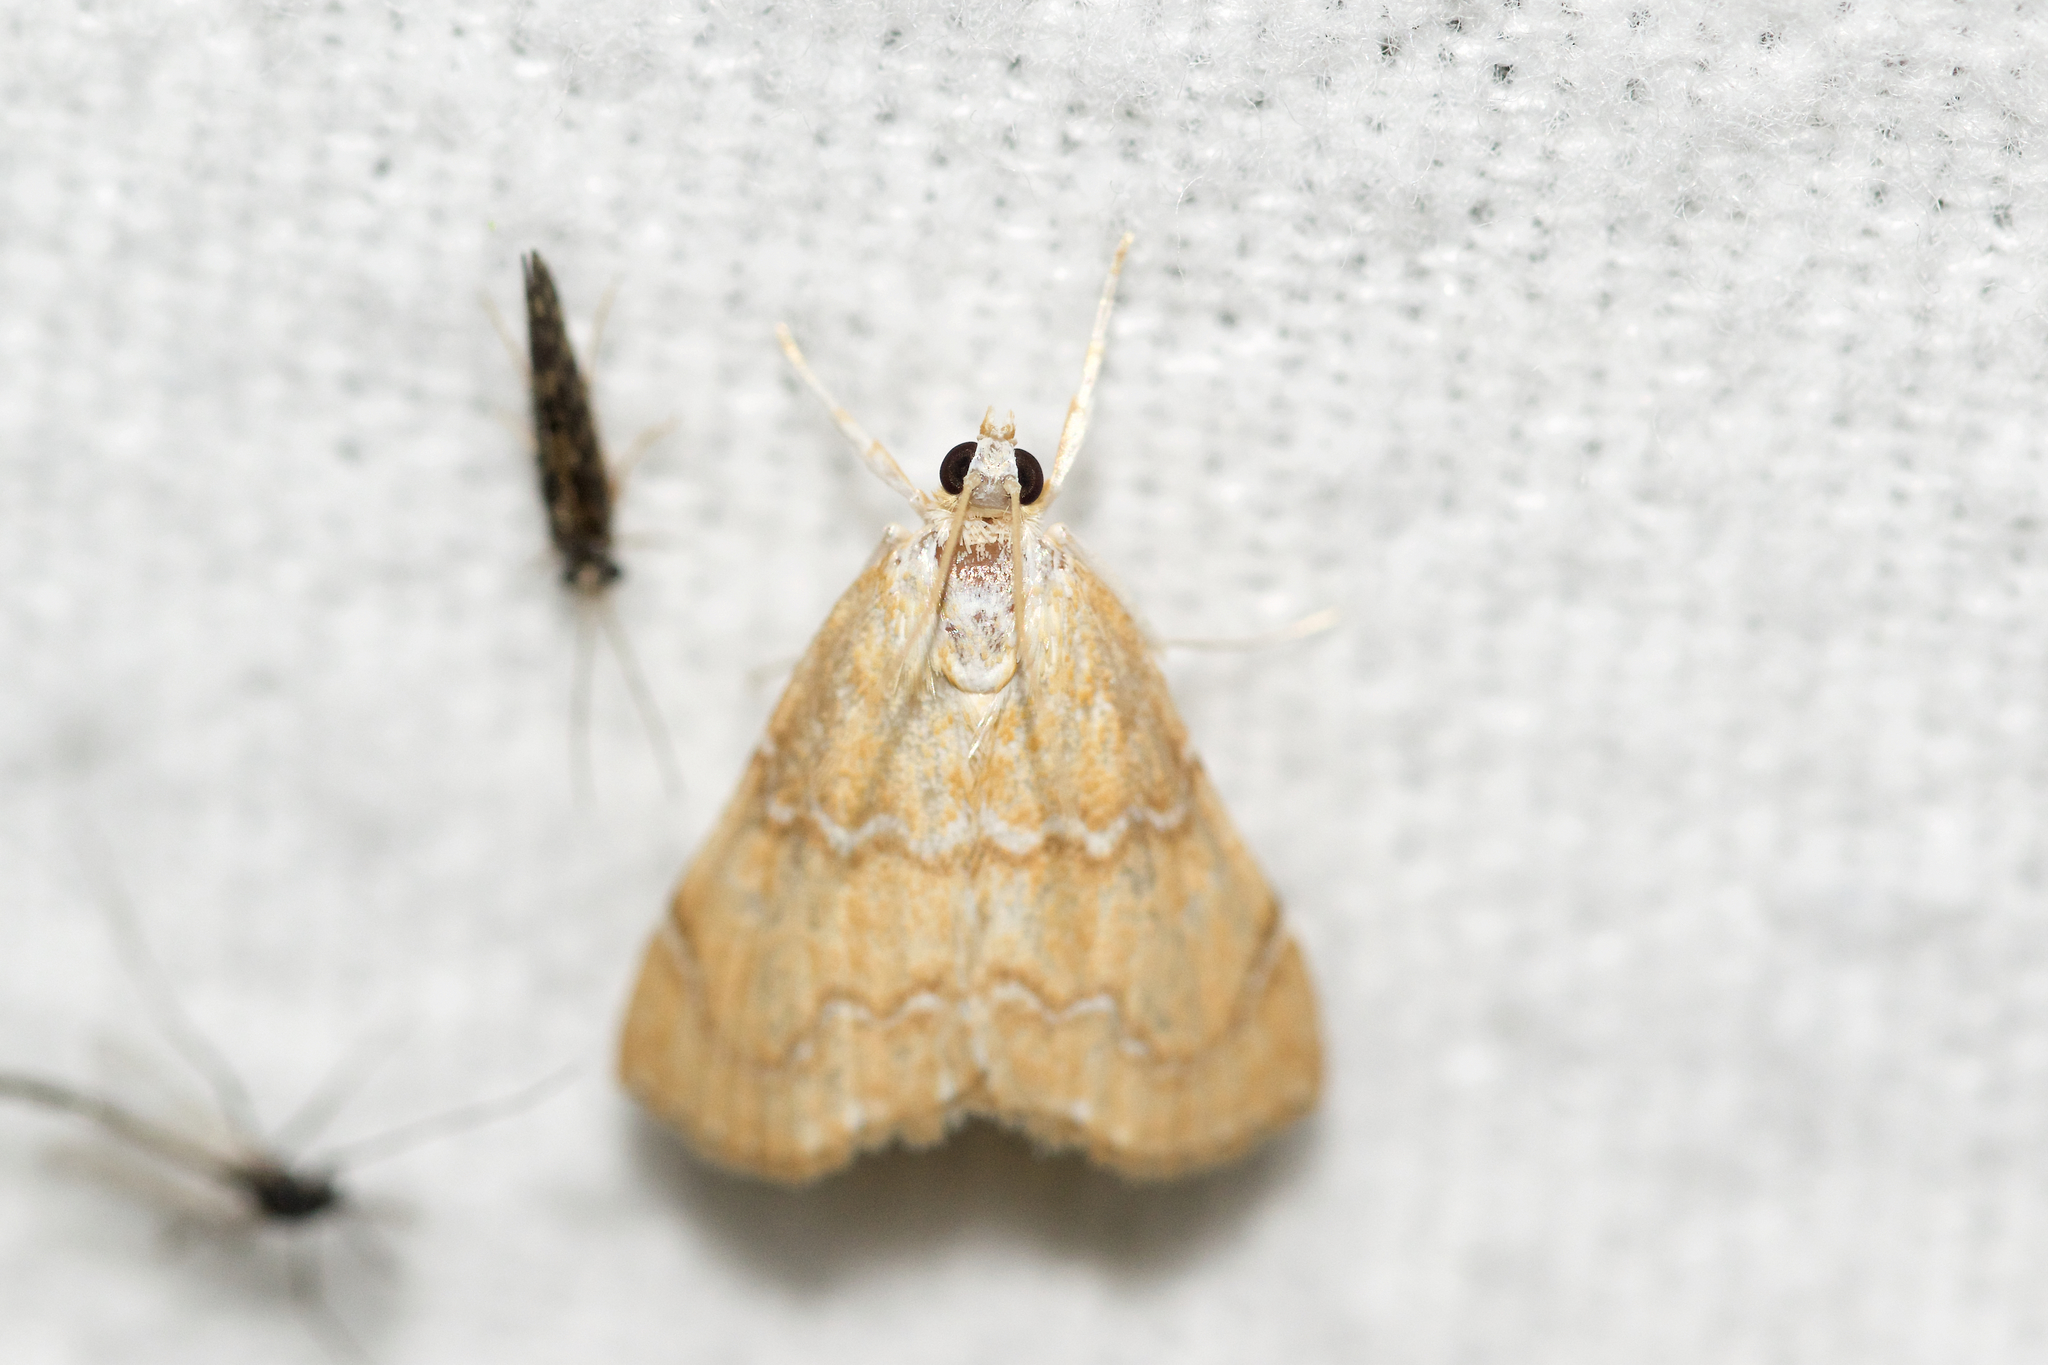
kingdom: Animalia
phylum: Arthropoda
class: Insecta
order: Lepidoptera
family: Crambidae
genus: Glaphyria
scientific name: Glaphyria sesquistrialis
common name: White-roped glaphyria
